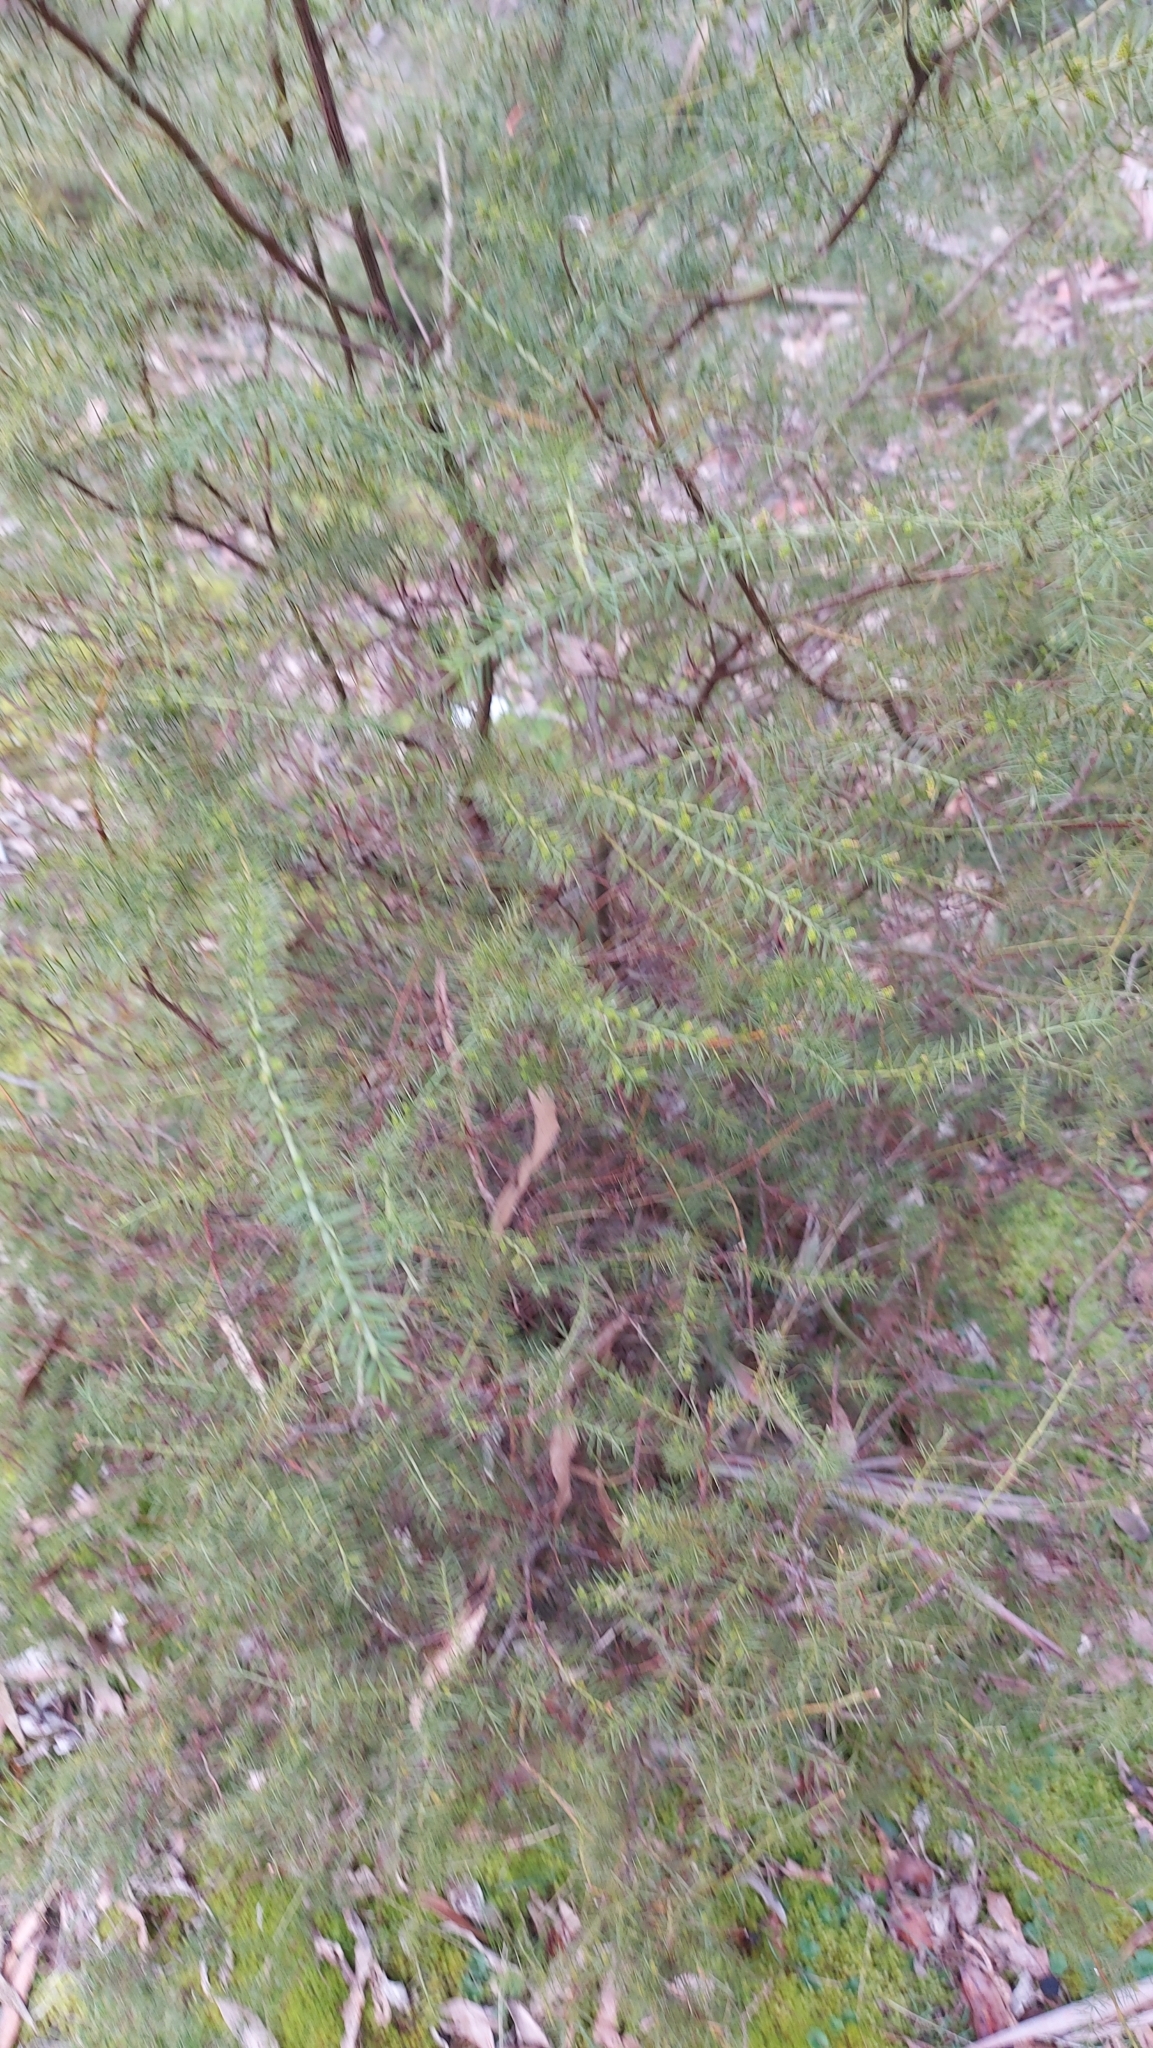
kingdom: Plantae
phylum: Tracheophyta
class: Magnoliopsida
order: Fabales
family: Fabaceae
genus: Acacia
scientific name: Acacia verticillata
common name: Prickly moses
